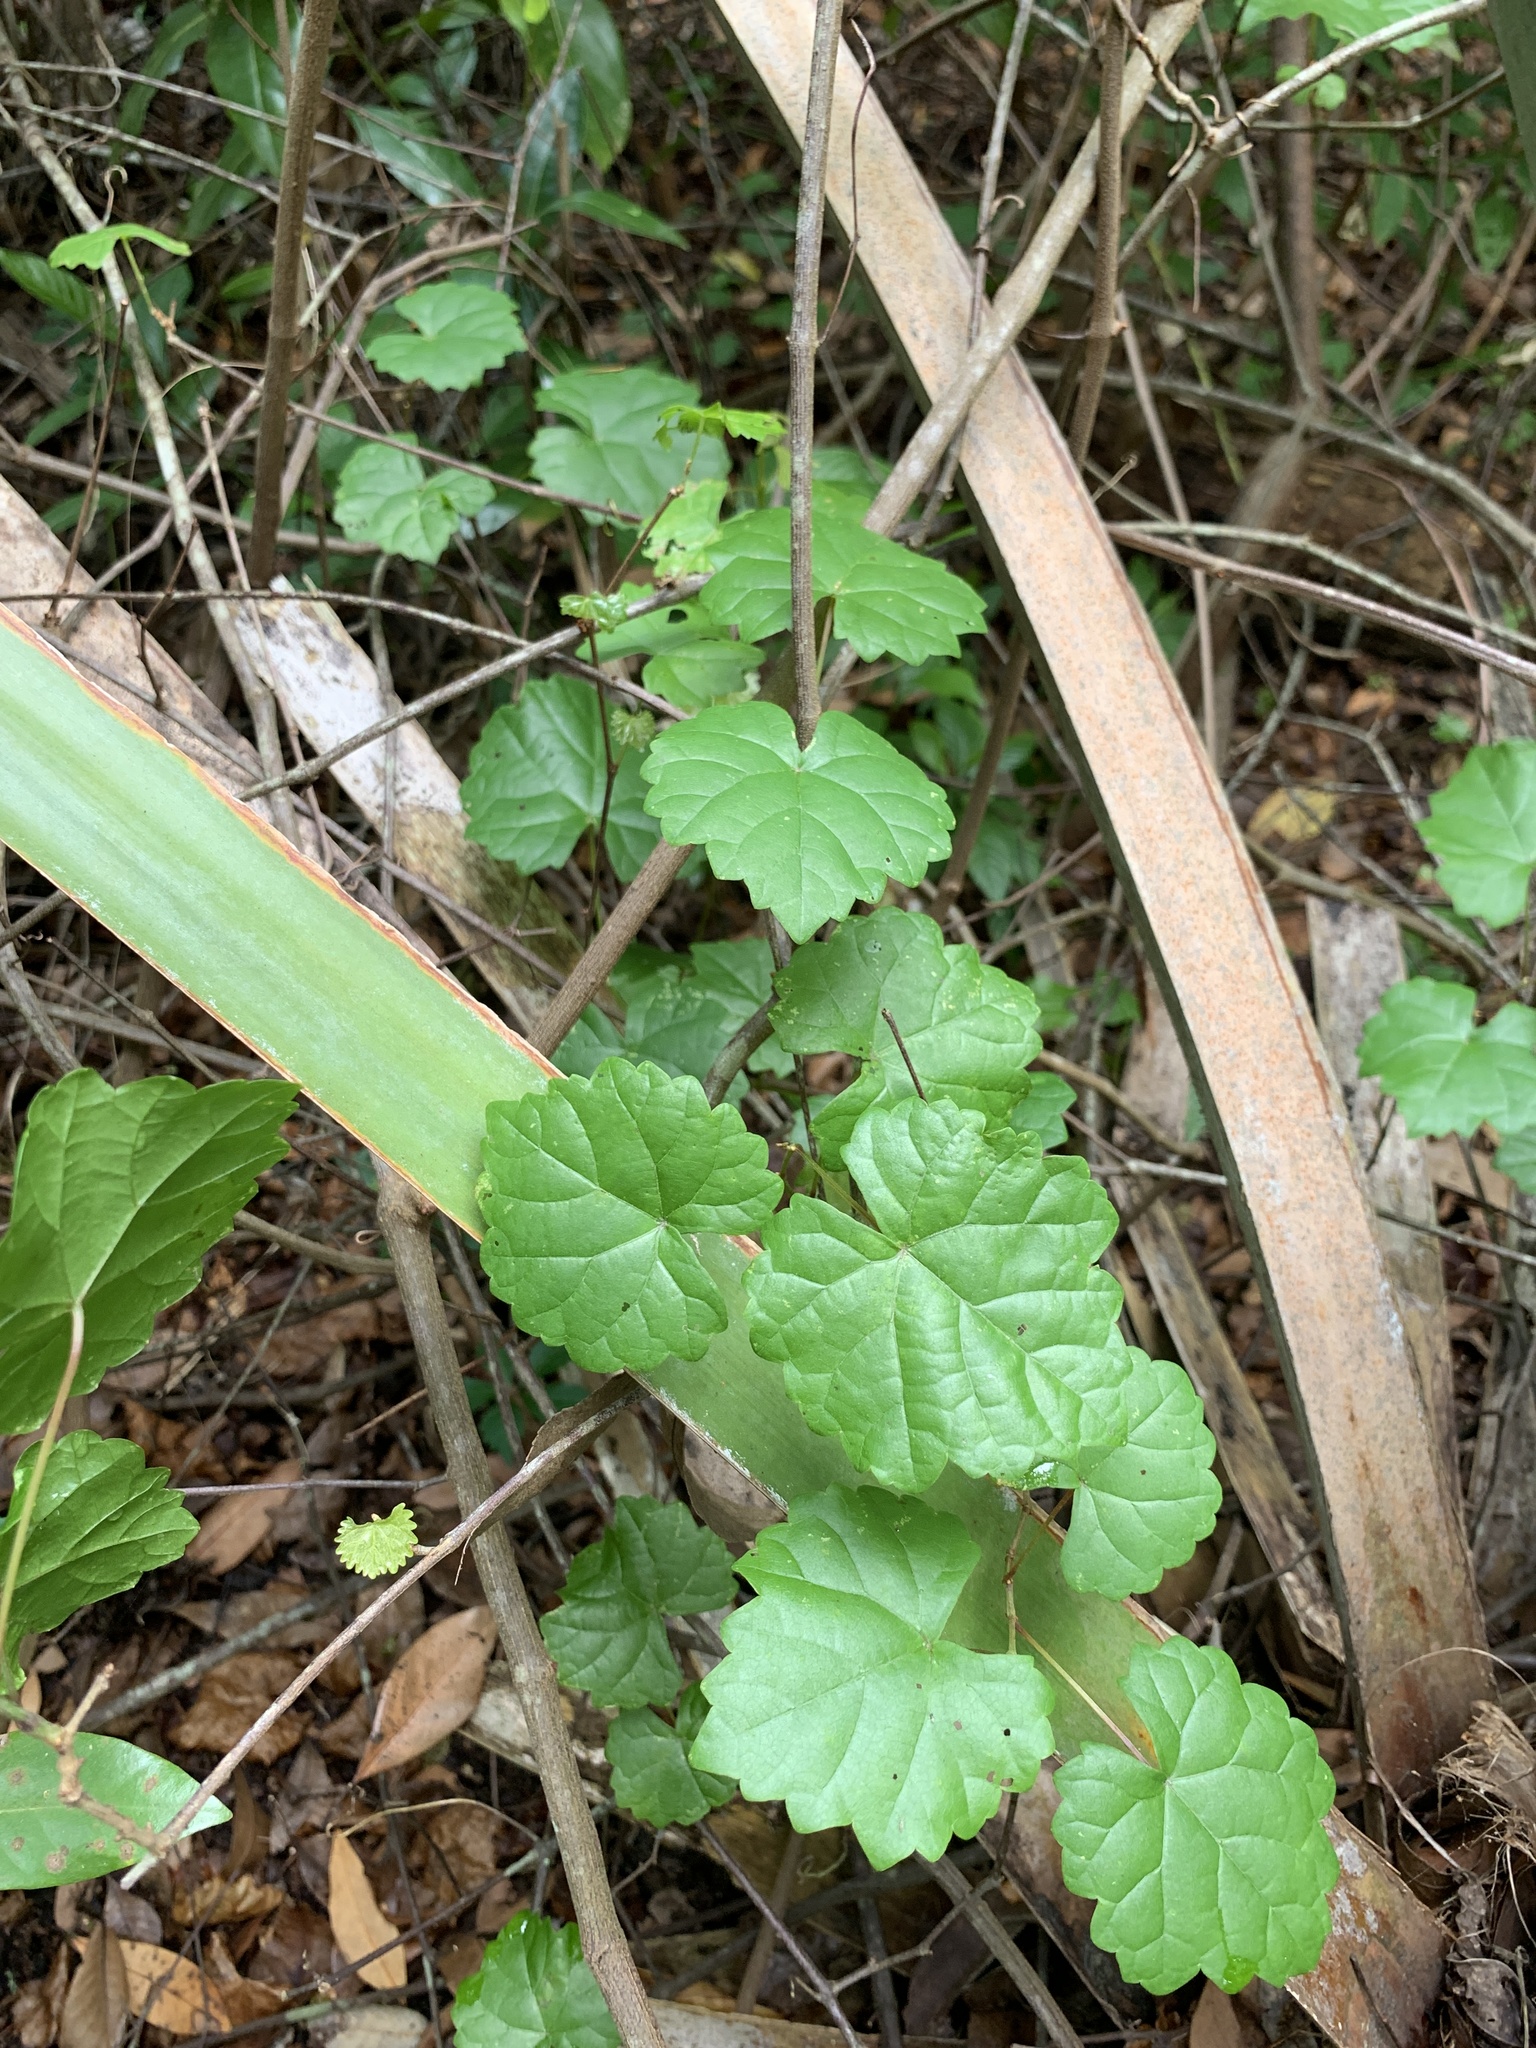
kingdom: Plantae
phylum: Tracheophyta
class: Magnoliopsida
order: Vitales
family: Vitaceae
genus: Vitis
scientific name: Vitis rotundifolia
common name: Muscadine grape
